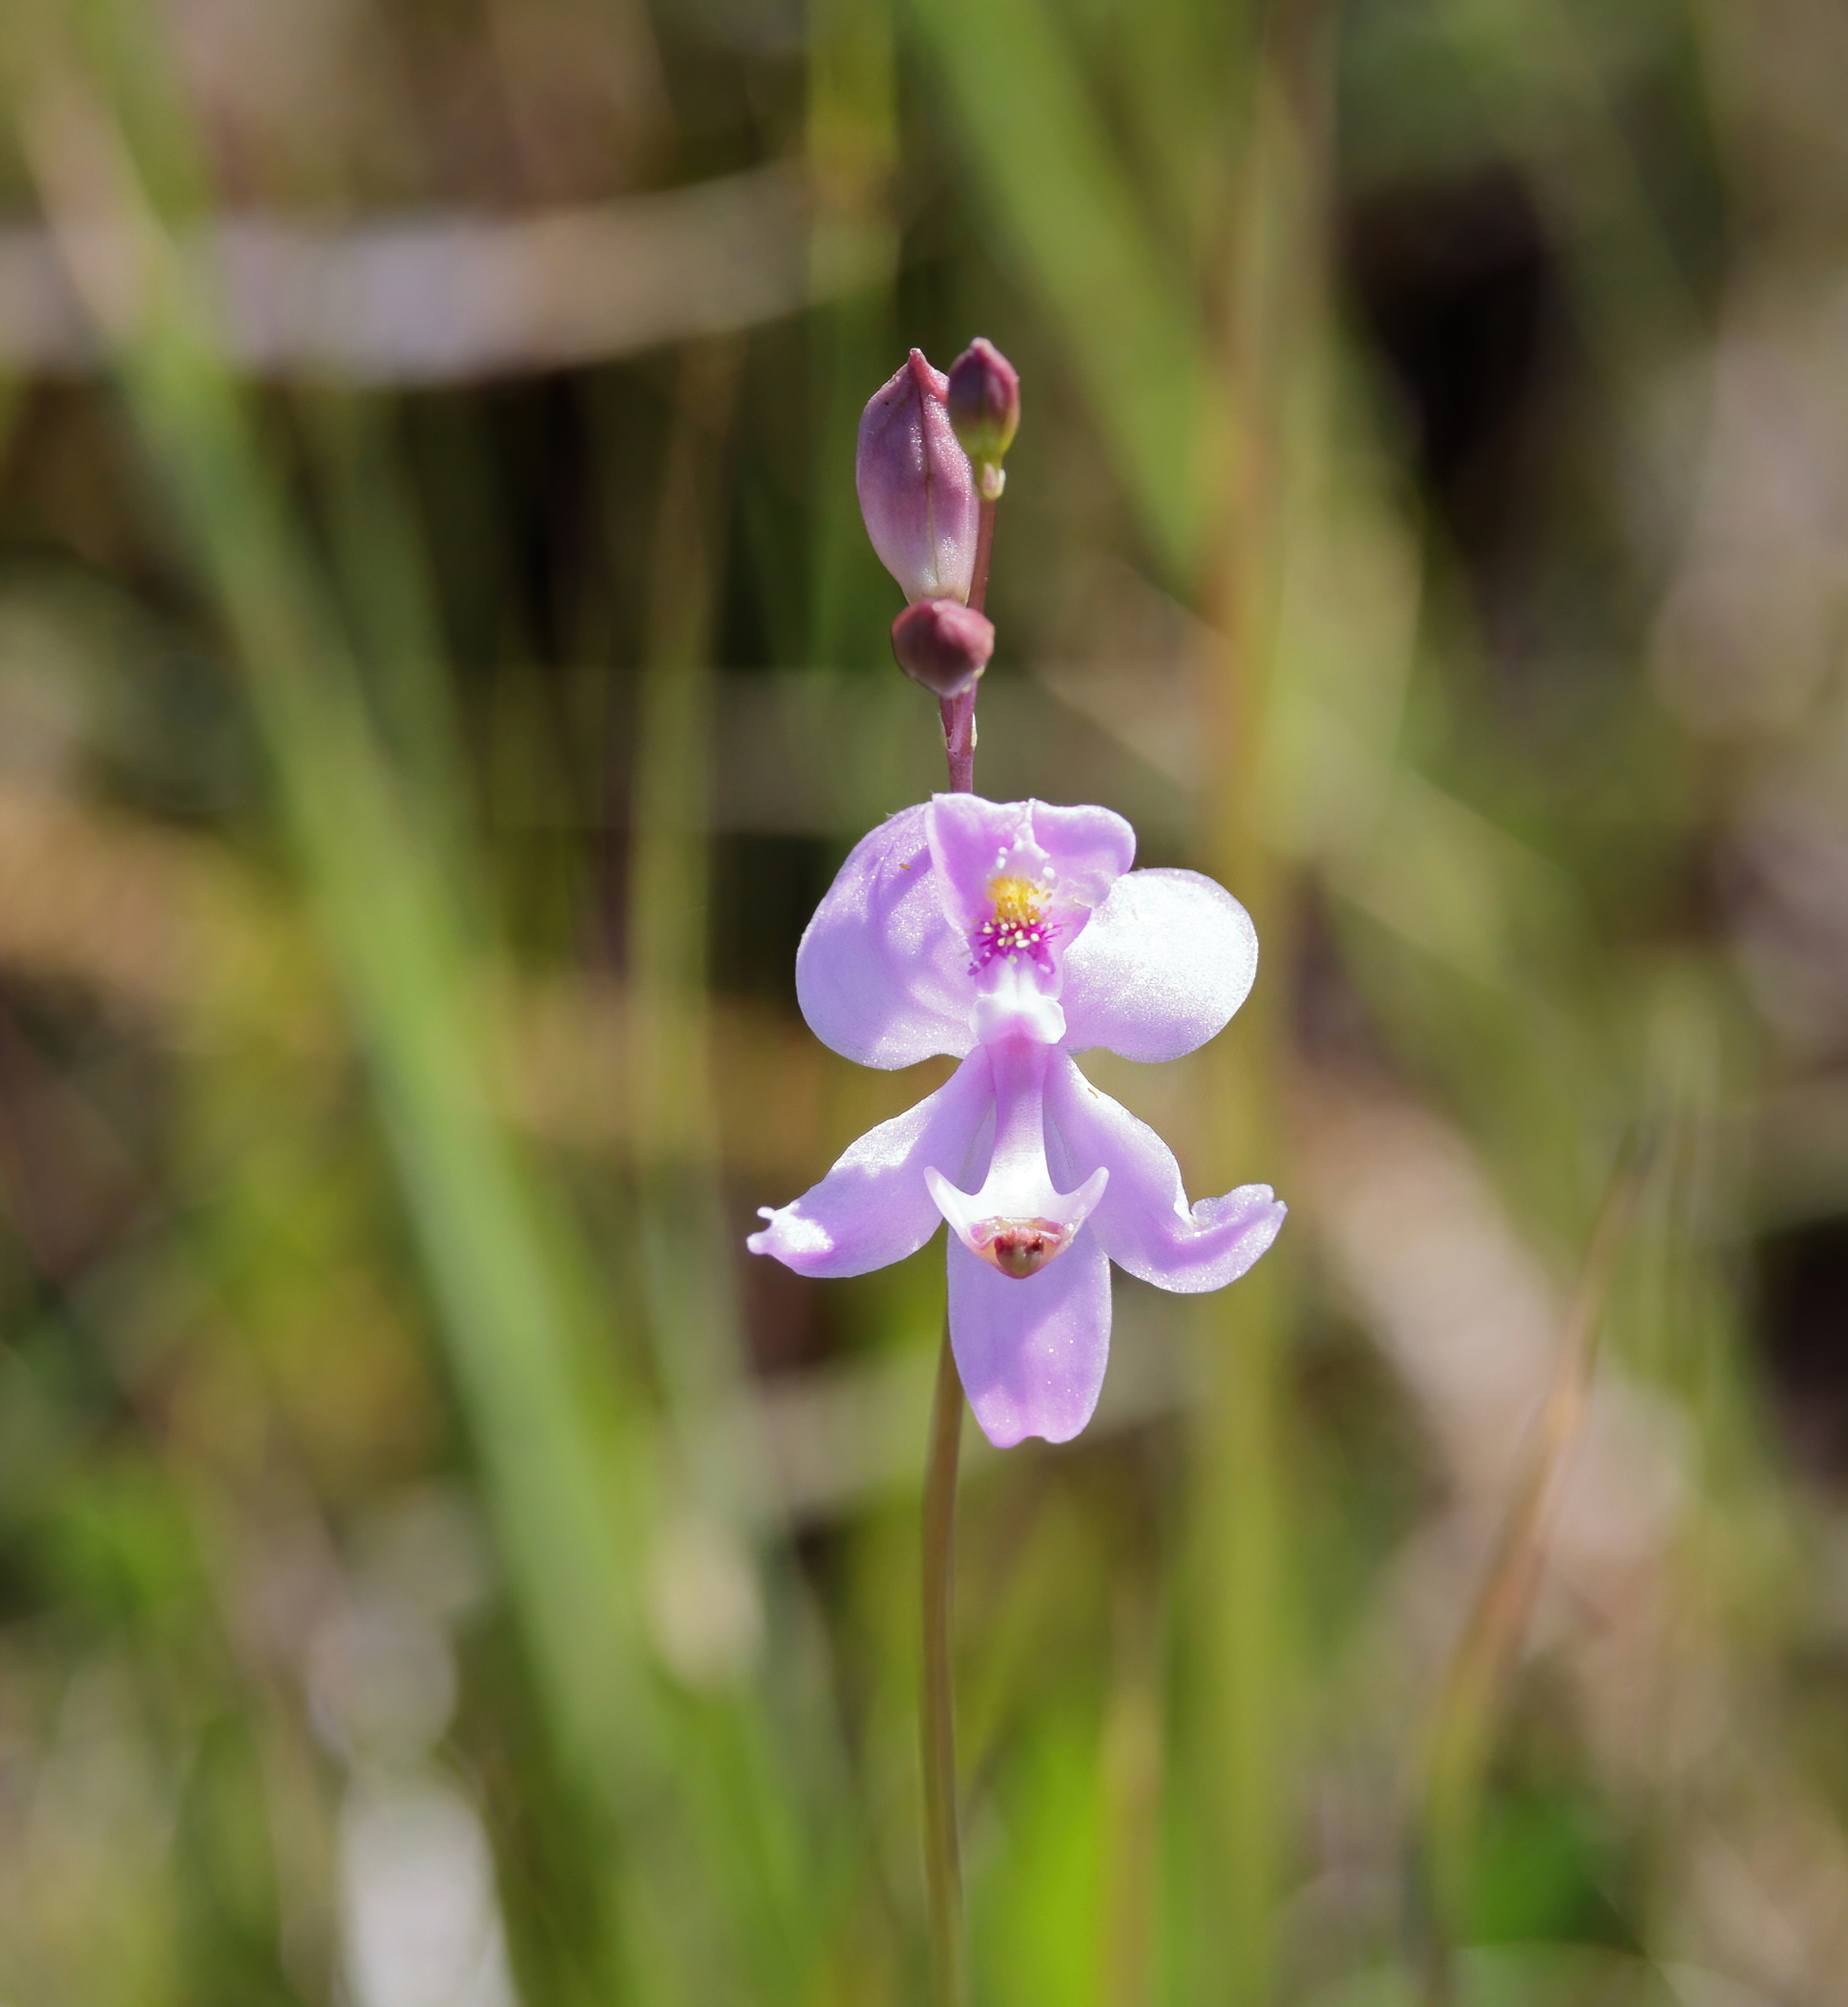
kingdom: Plantae
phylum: Tracheophyta
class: Liliopsida
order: Asparagales
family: Orchidaceae
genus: Calopogon
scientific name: Calopogon pallidus
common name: Pale grasspink
